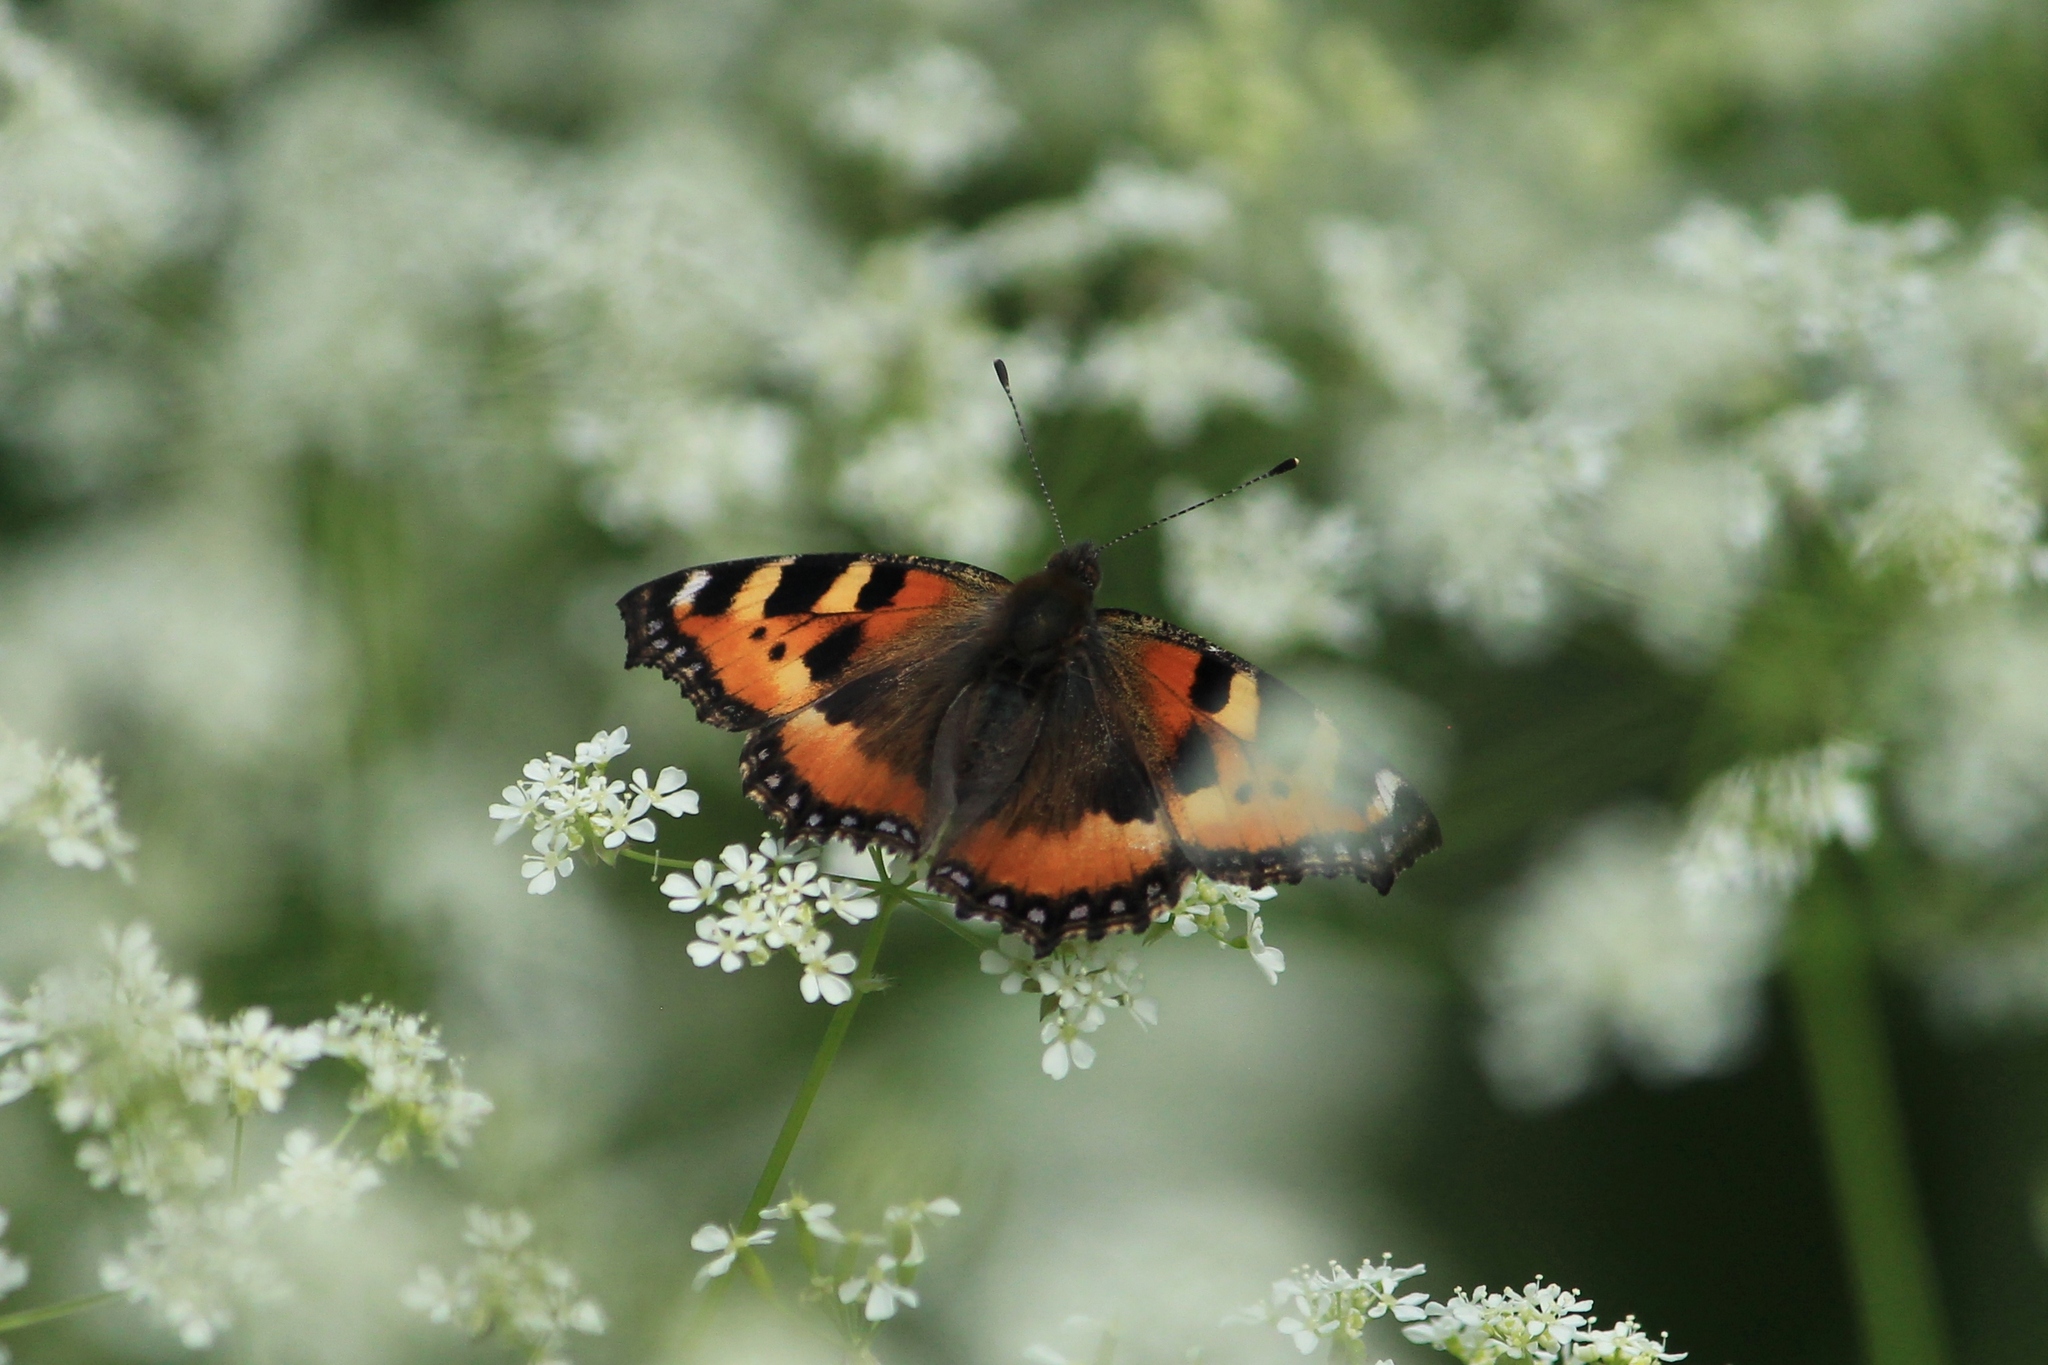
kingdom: Animalia
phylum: Arthropoda
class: Insecta
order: Lepidoptera
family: Nymphalidae
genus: Aglais
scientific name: Aglais urticae
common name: Small tortoiseshell
